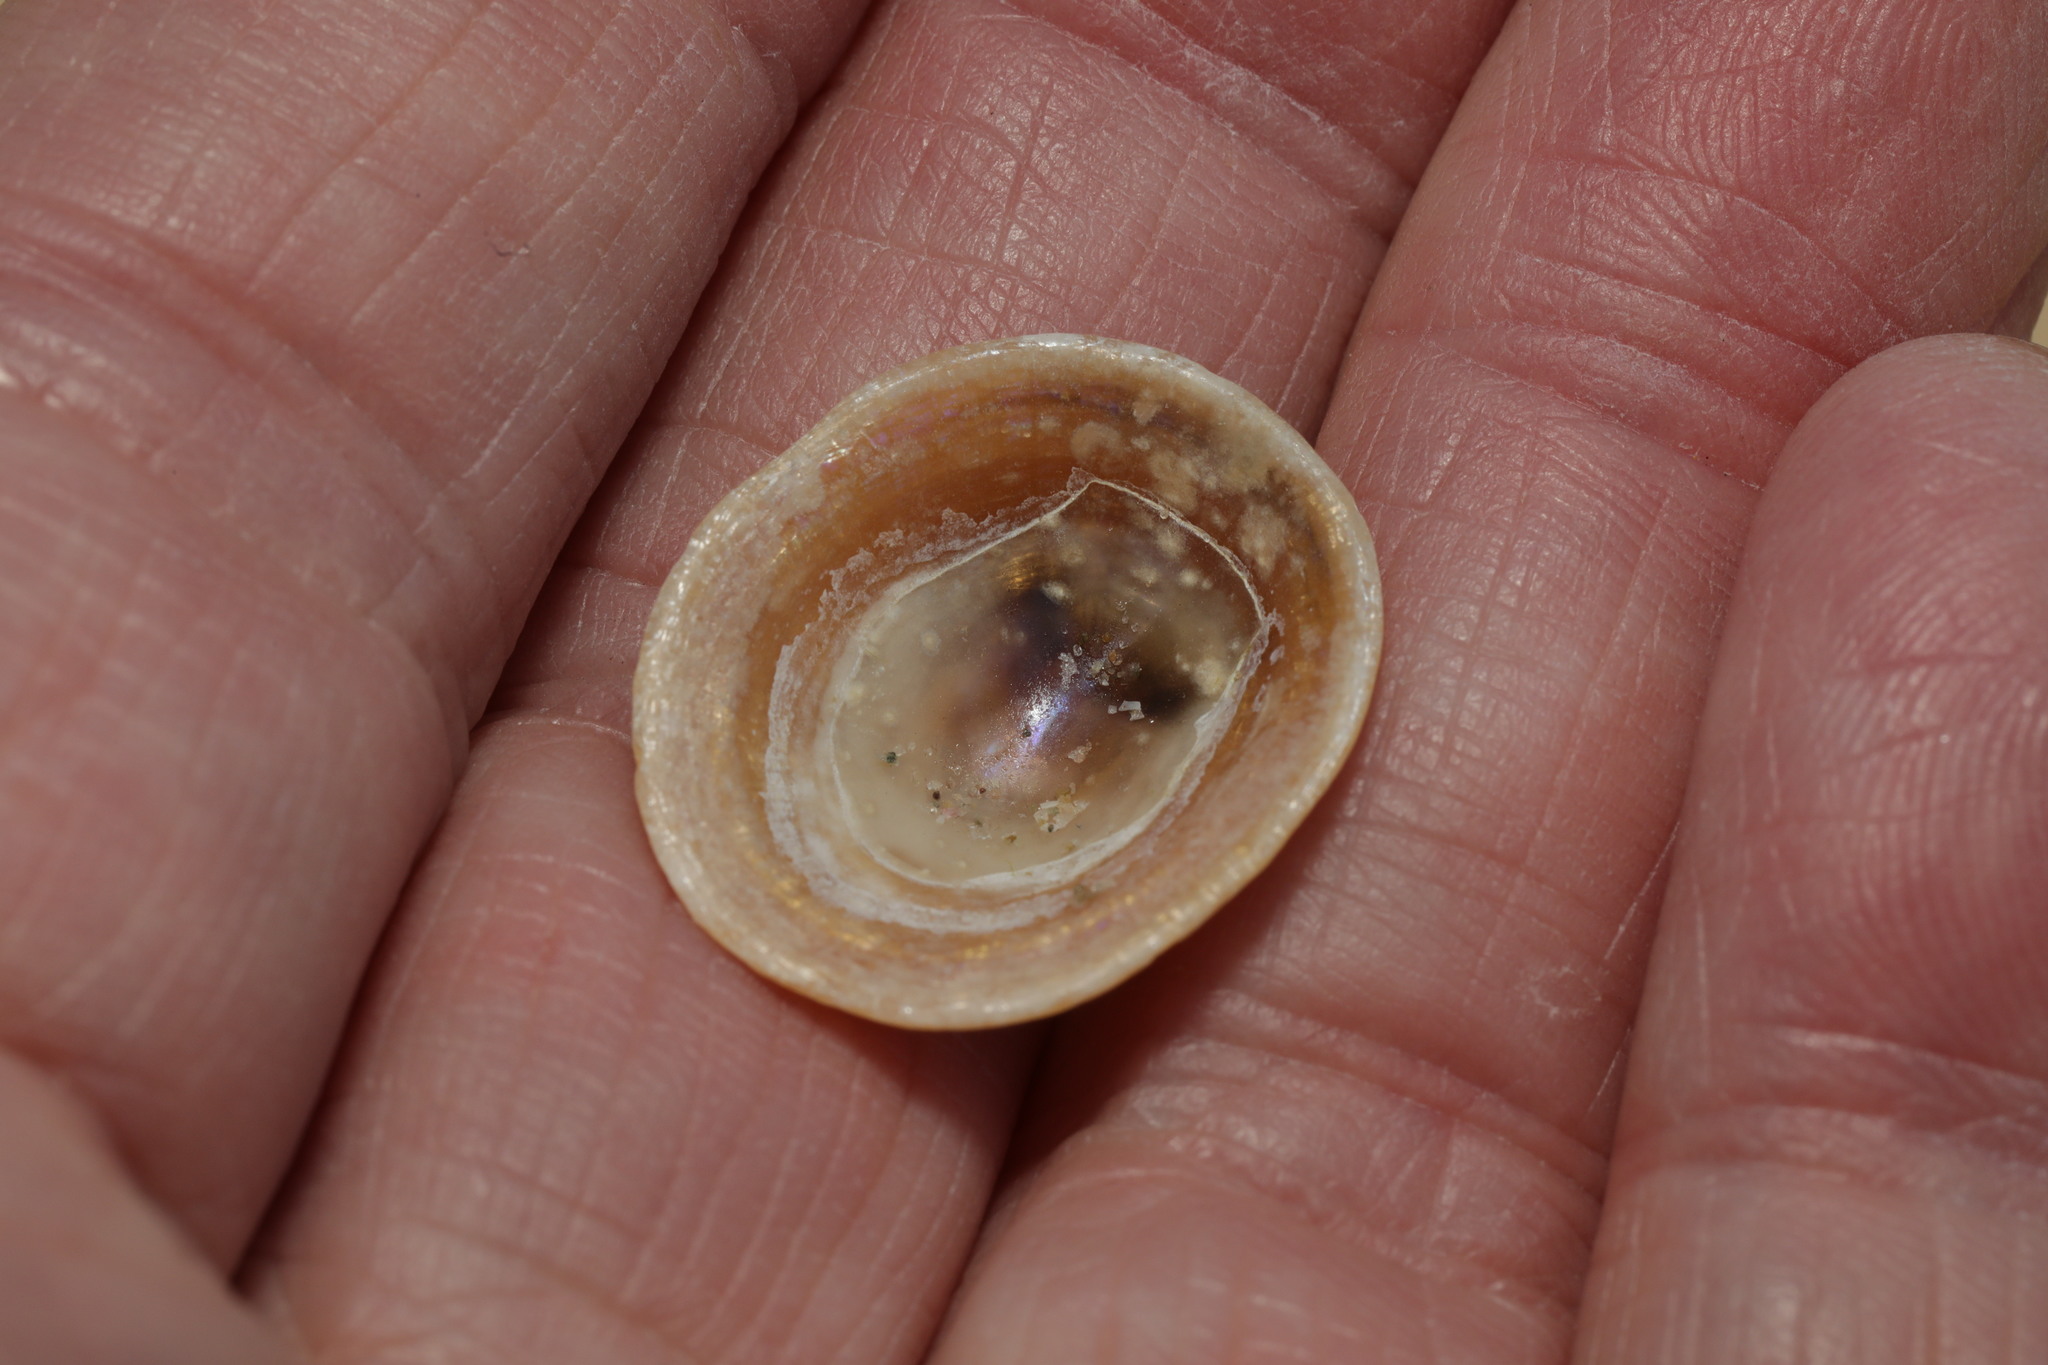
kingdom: Animalia
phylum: Mollusca
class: Gastropoda
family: Patellidae
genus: Patella
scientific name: Patella pellucida
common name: Blue-rayed limpet
